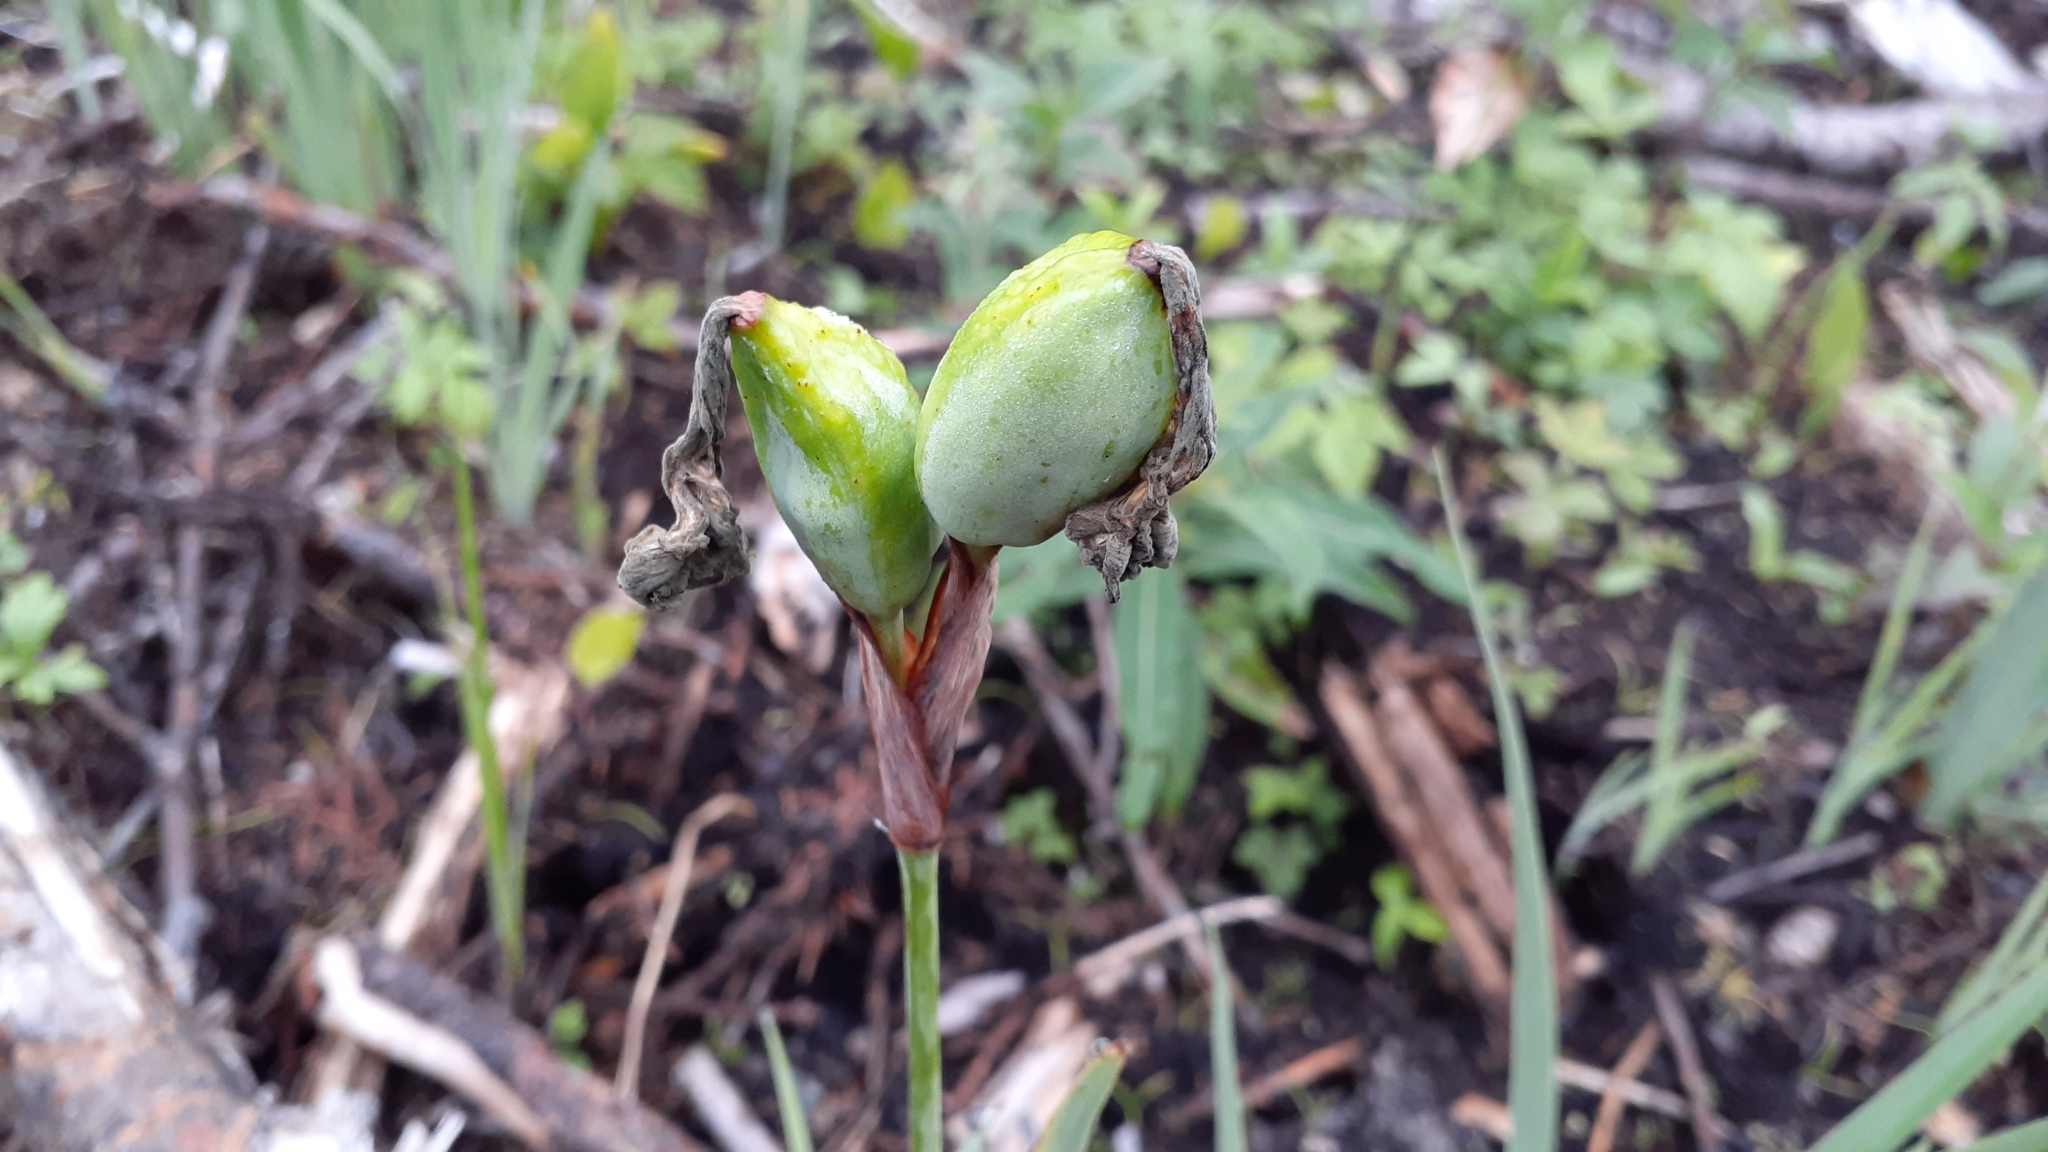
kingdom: Plantae
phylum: Tracheophyta
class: Liliopsida
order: Asparagales
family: Iridaceae
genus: Iris
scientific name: Iris versicolor
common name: Purple iris
